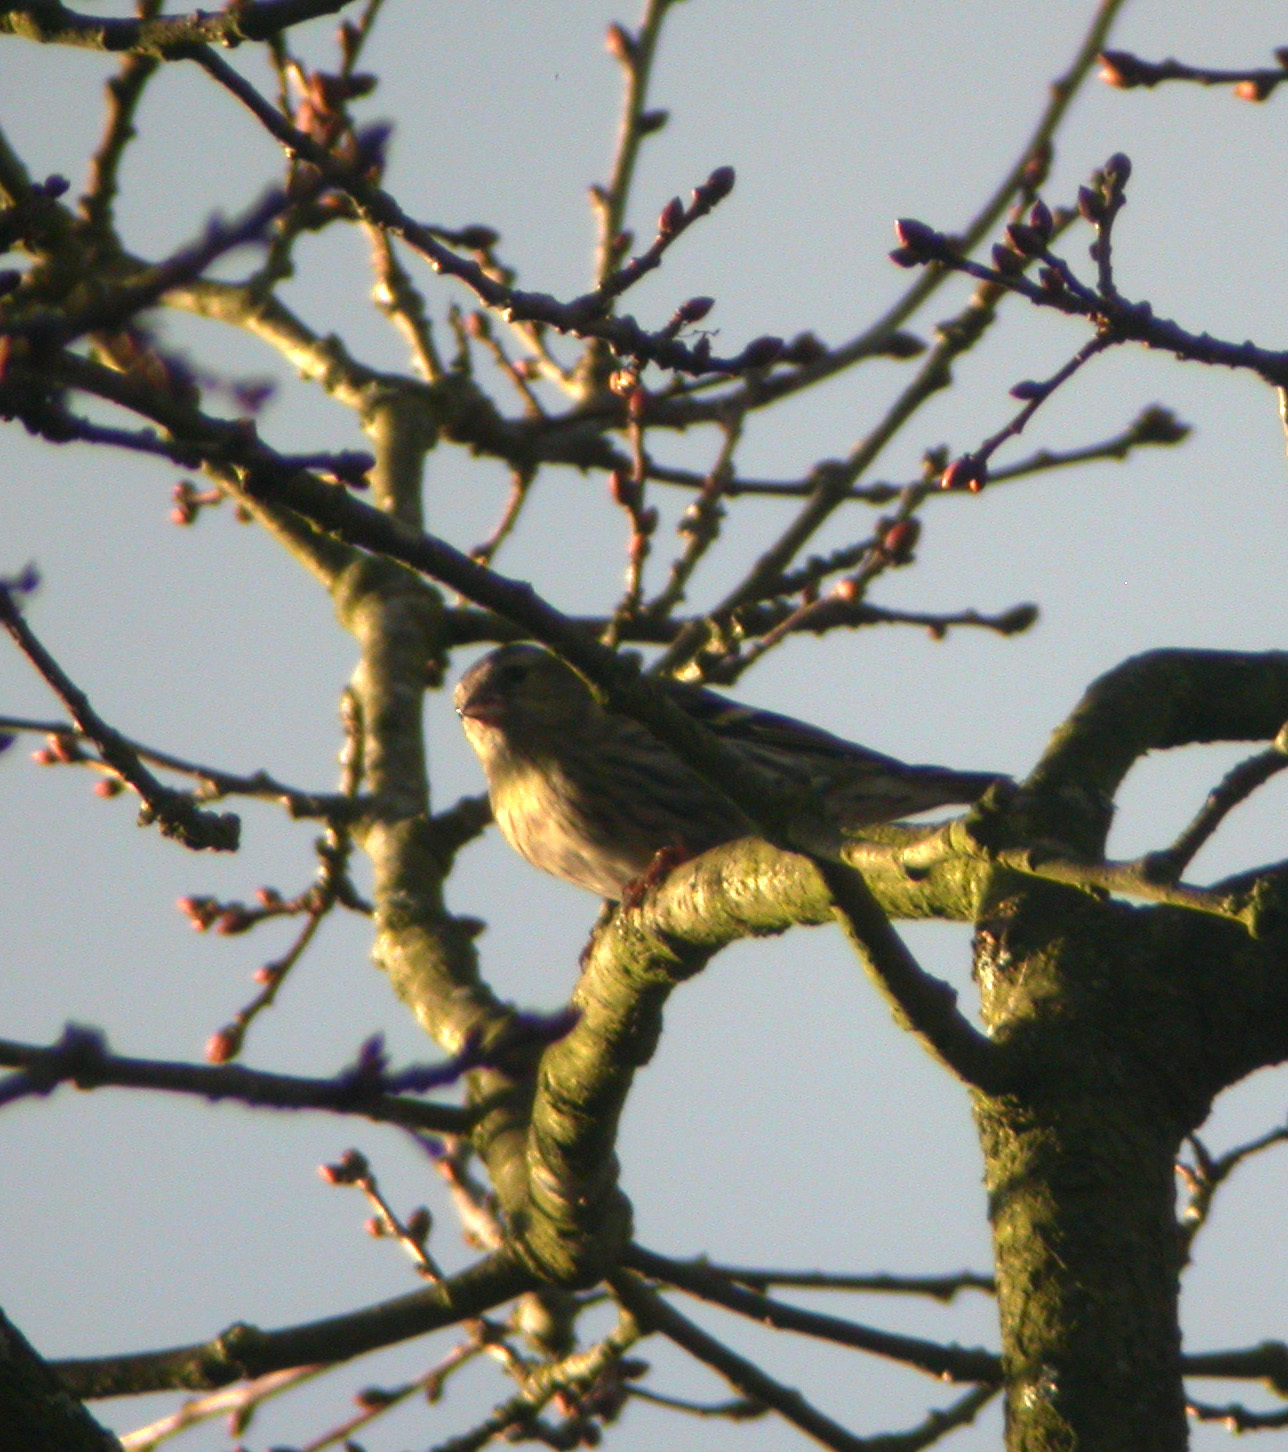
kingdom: Animalia
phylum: Chordata
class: Aves
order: Passeriformes
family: Fringillidae
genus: Spinus
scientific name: Spinus spinus
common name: Eurasian siskin
